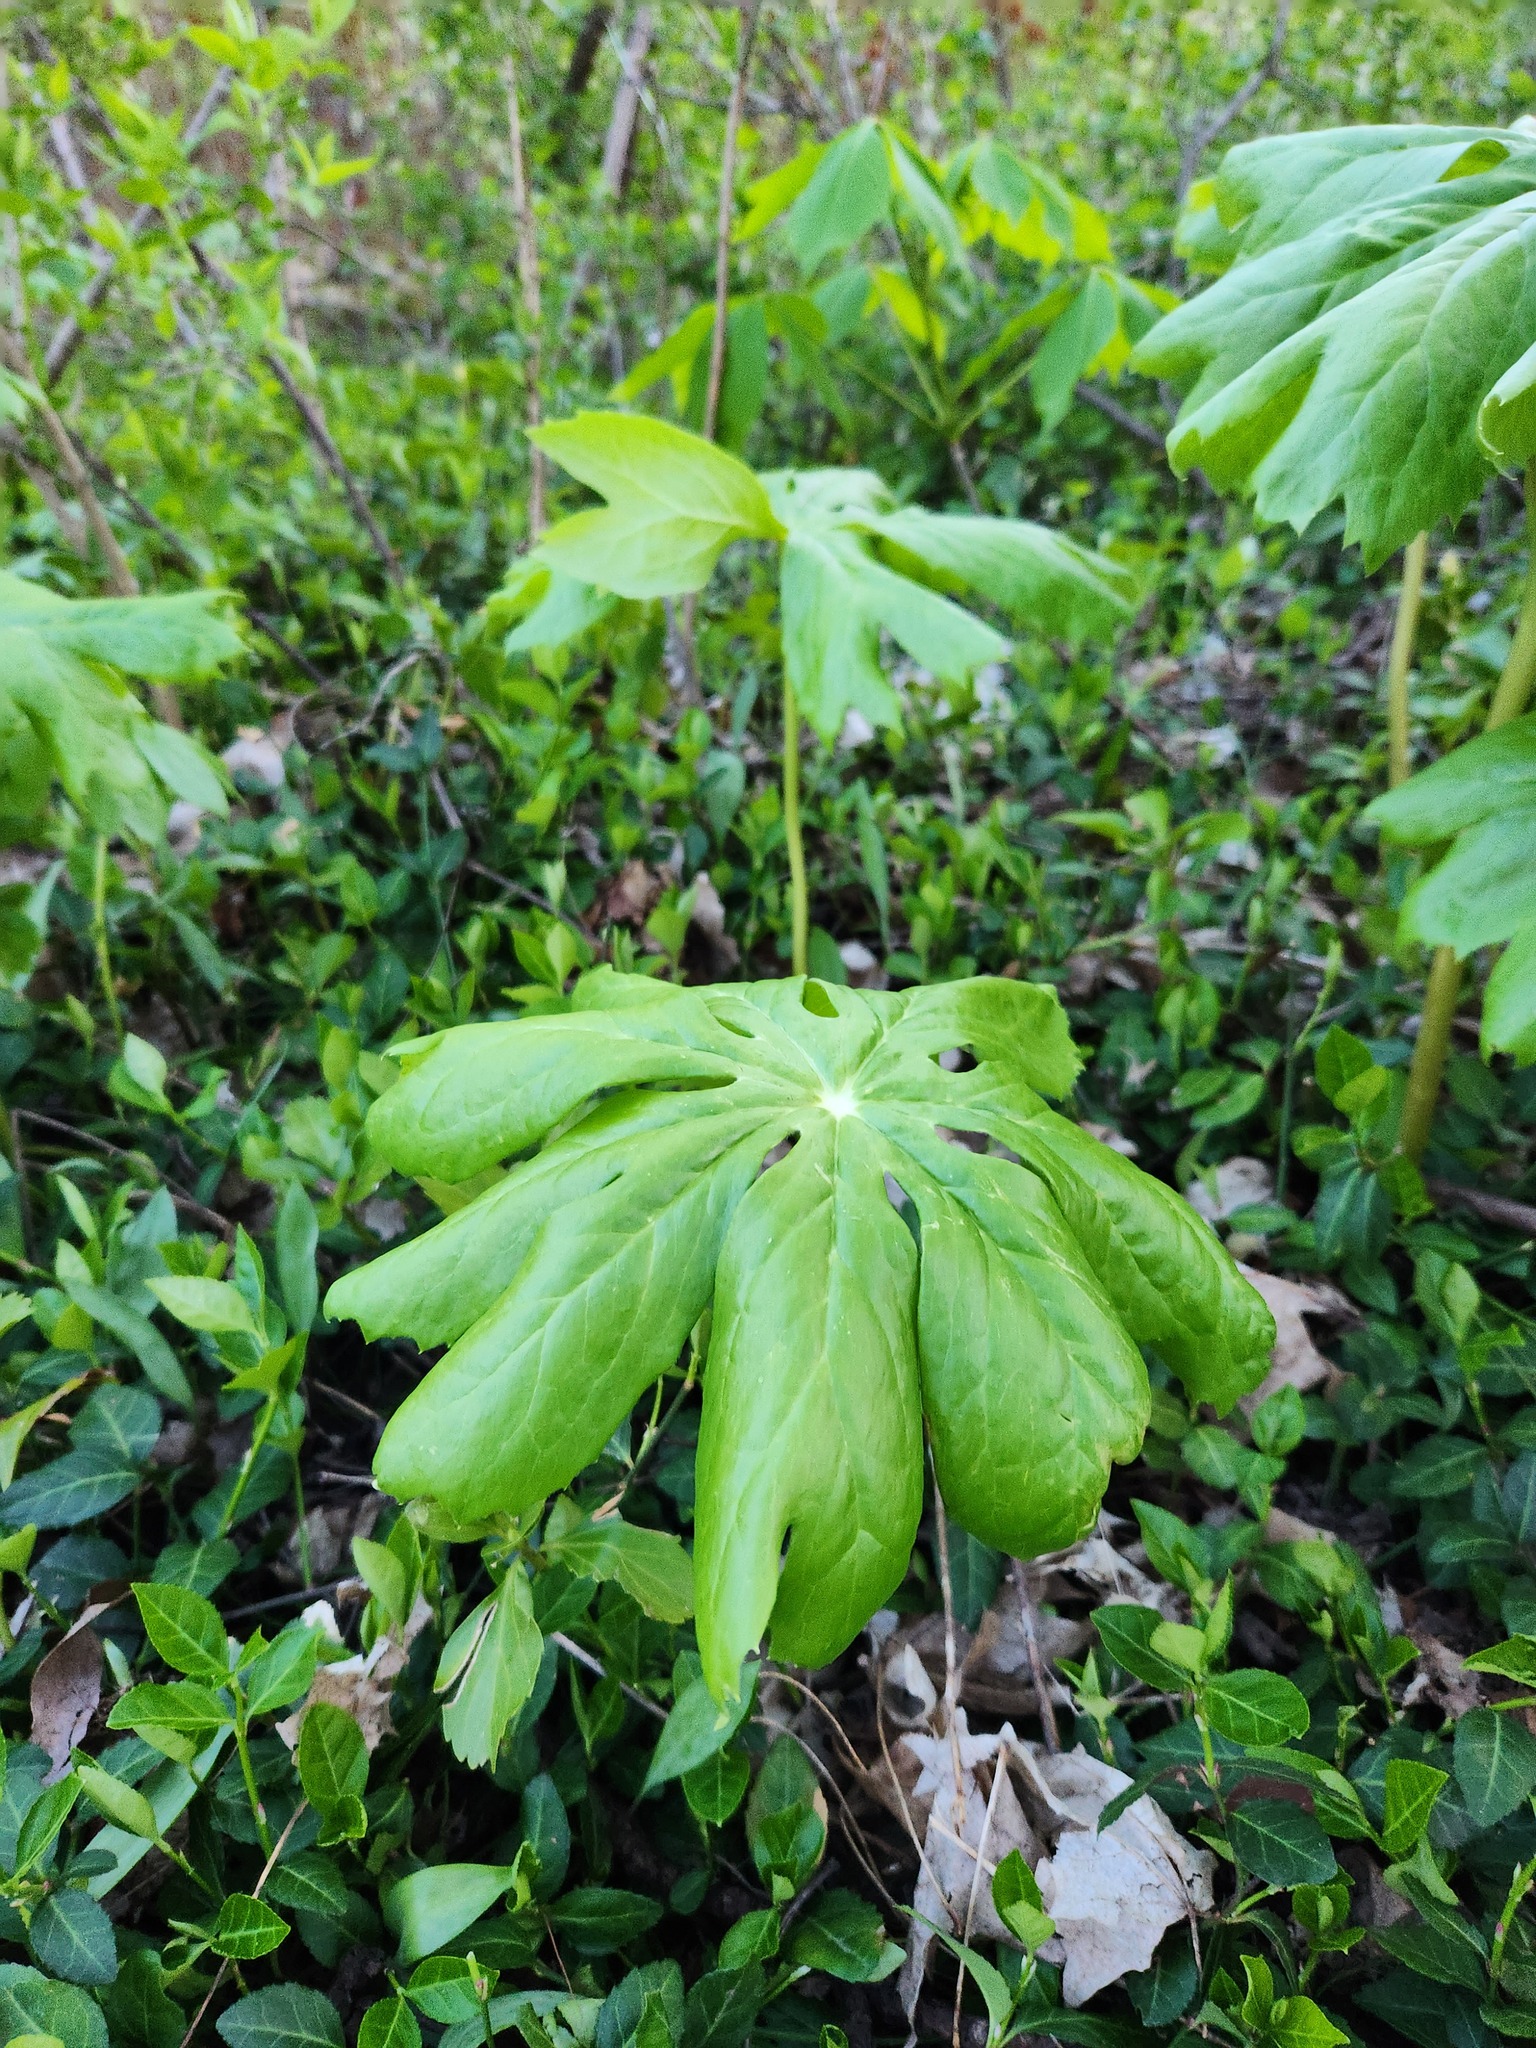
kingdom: Plantae
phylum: Tracheophyta
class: Magnoliopsida
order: Ranunculales
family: Berberidaceae
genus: Podophyllum
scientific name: Podophyllum peltatum
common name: Wild mandrake
